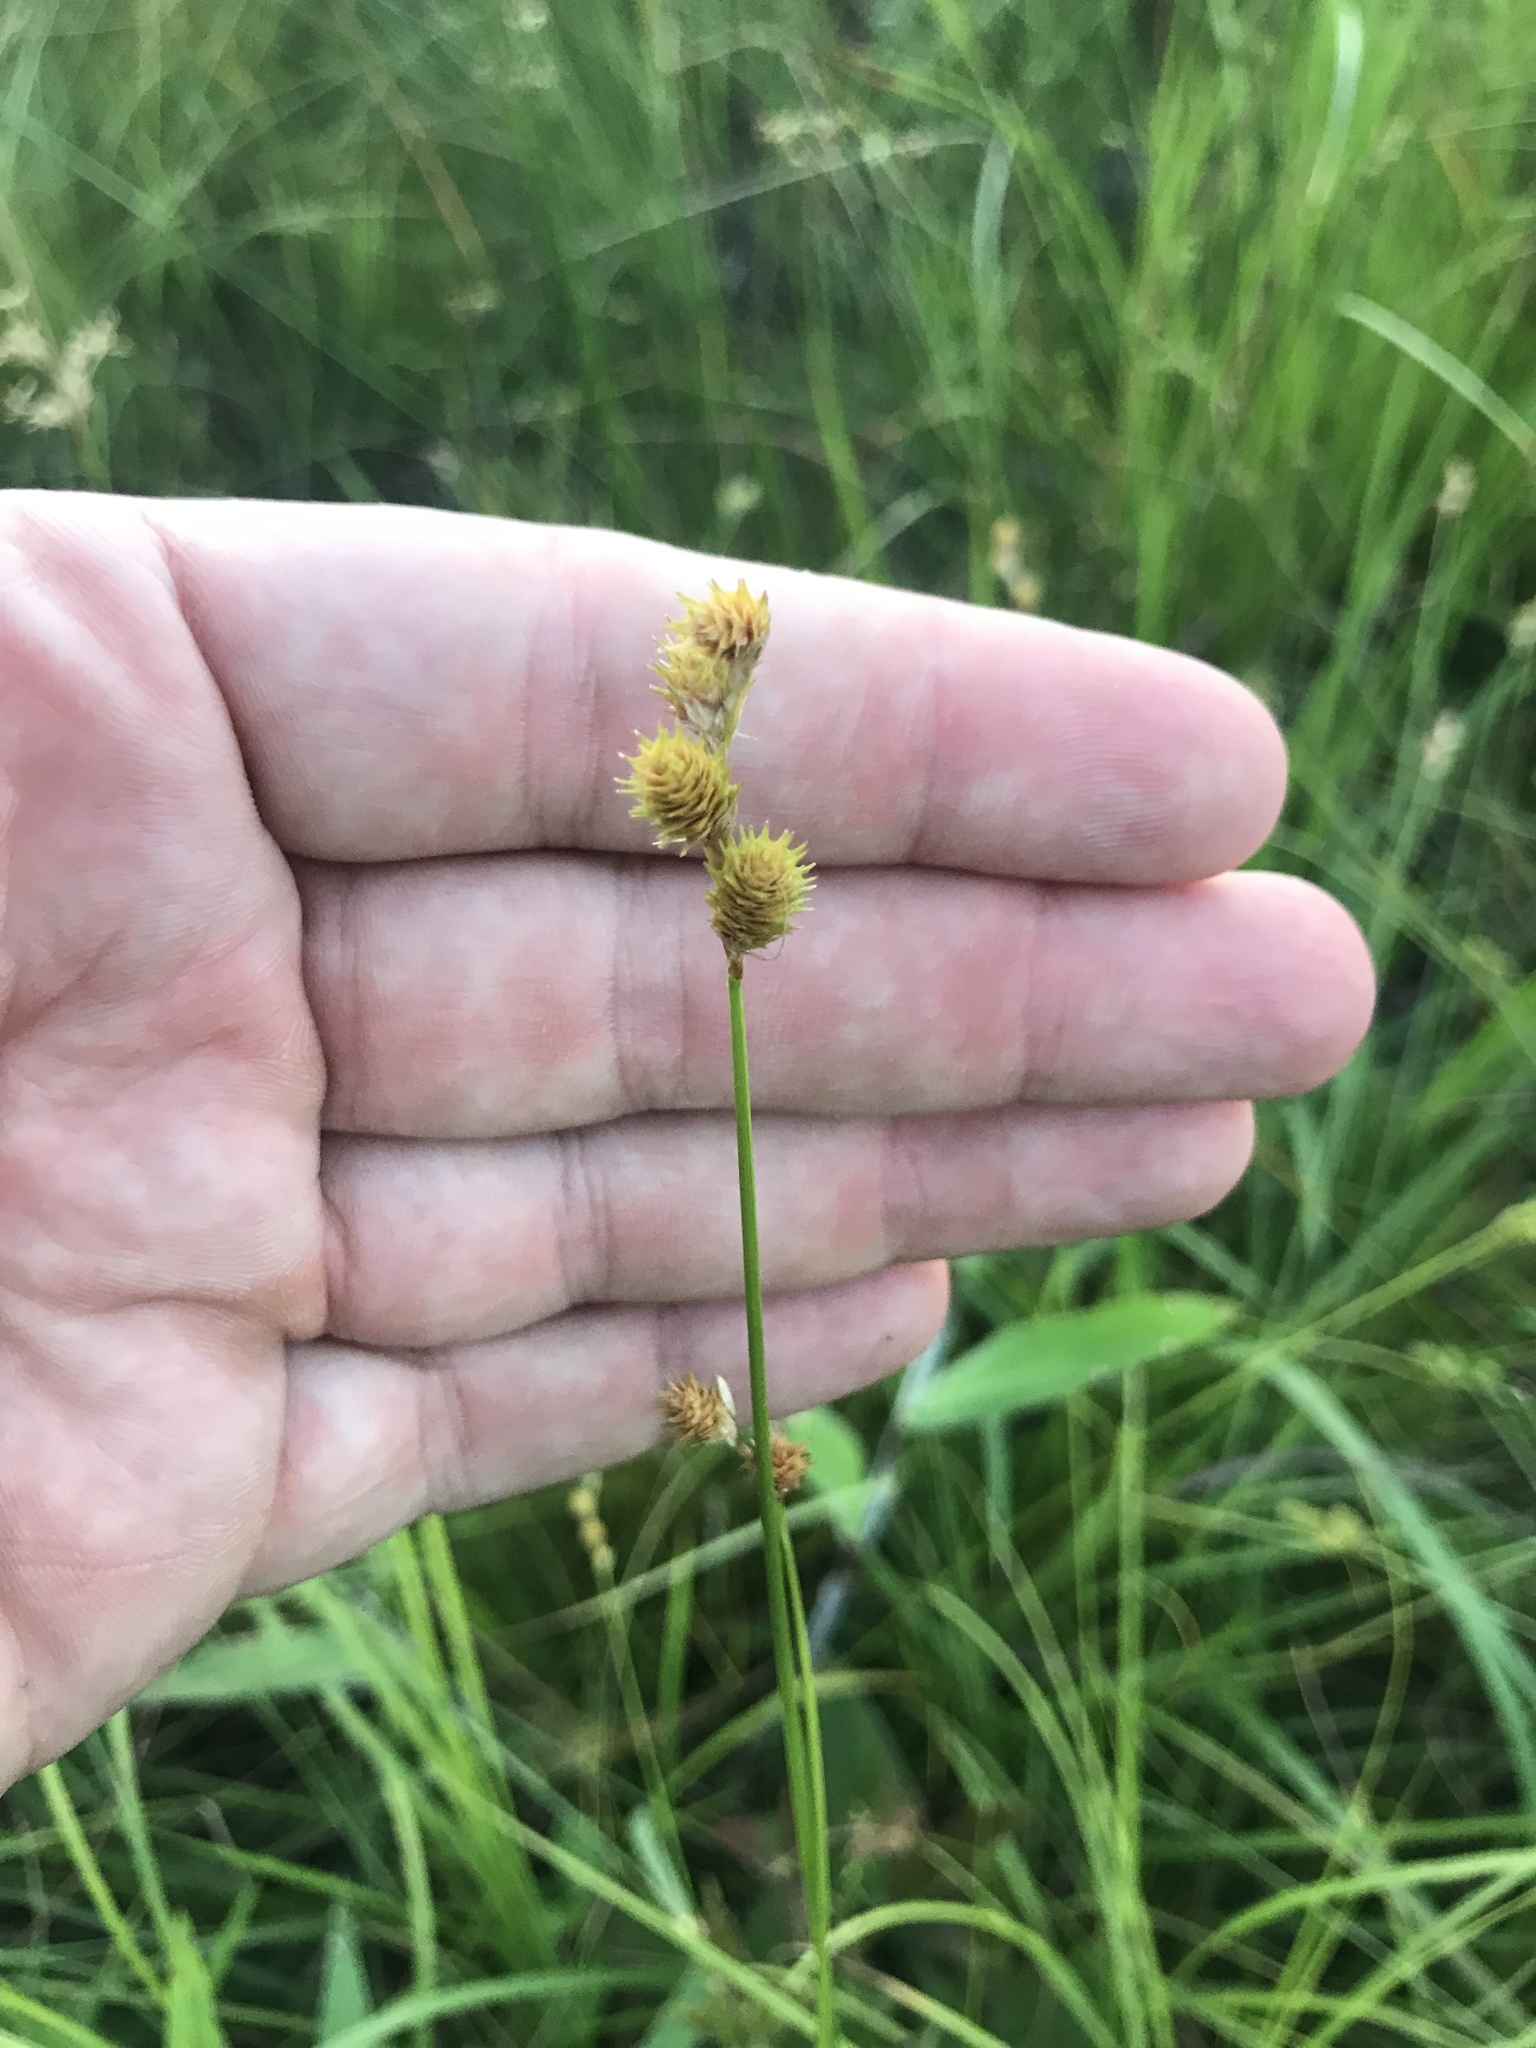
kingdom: Plantae
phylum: Tracheophyta
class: Liliopsida
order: Poales
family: Cyperaceae
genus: Carex
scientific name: Carex molesta
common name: Troublesome sedge
